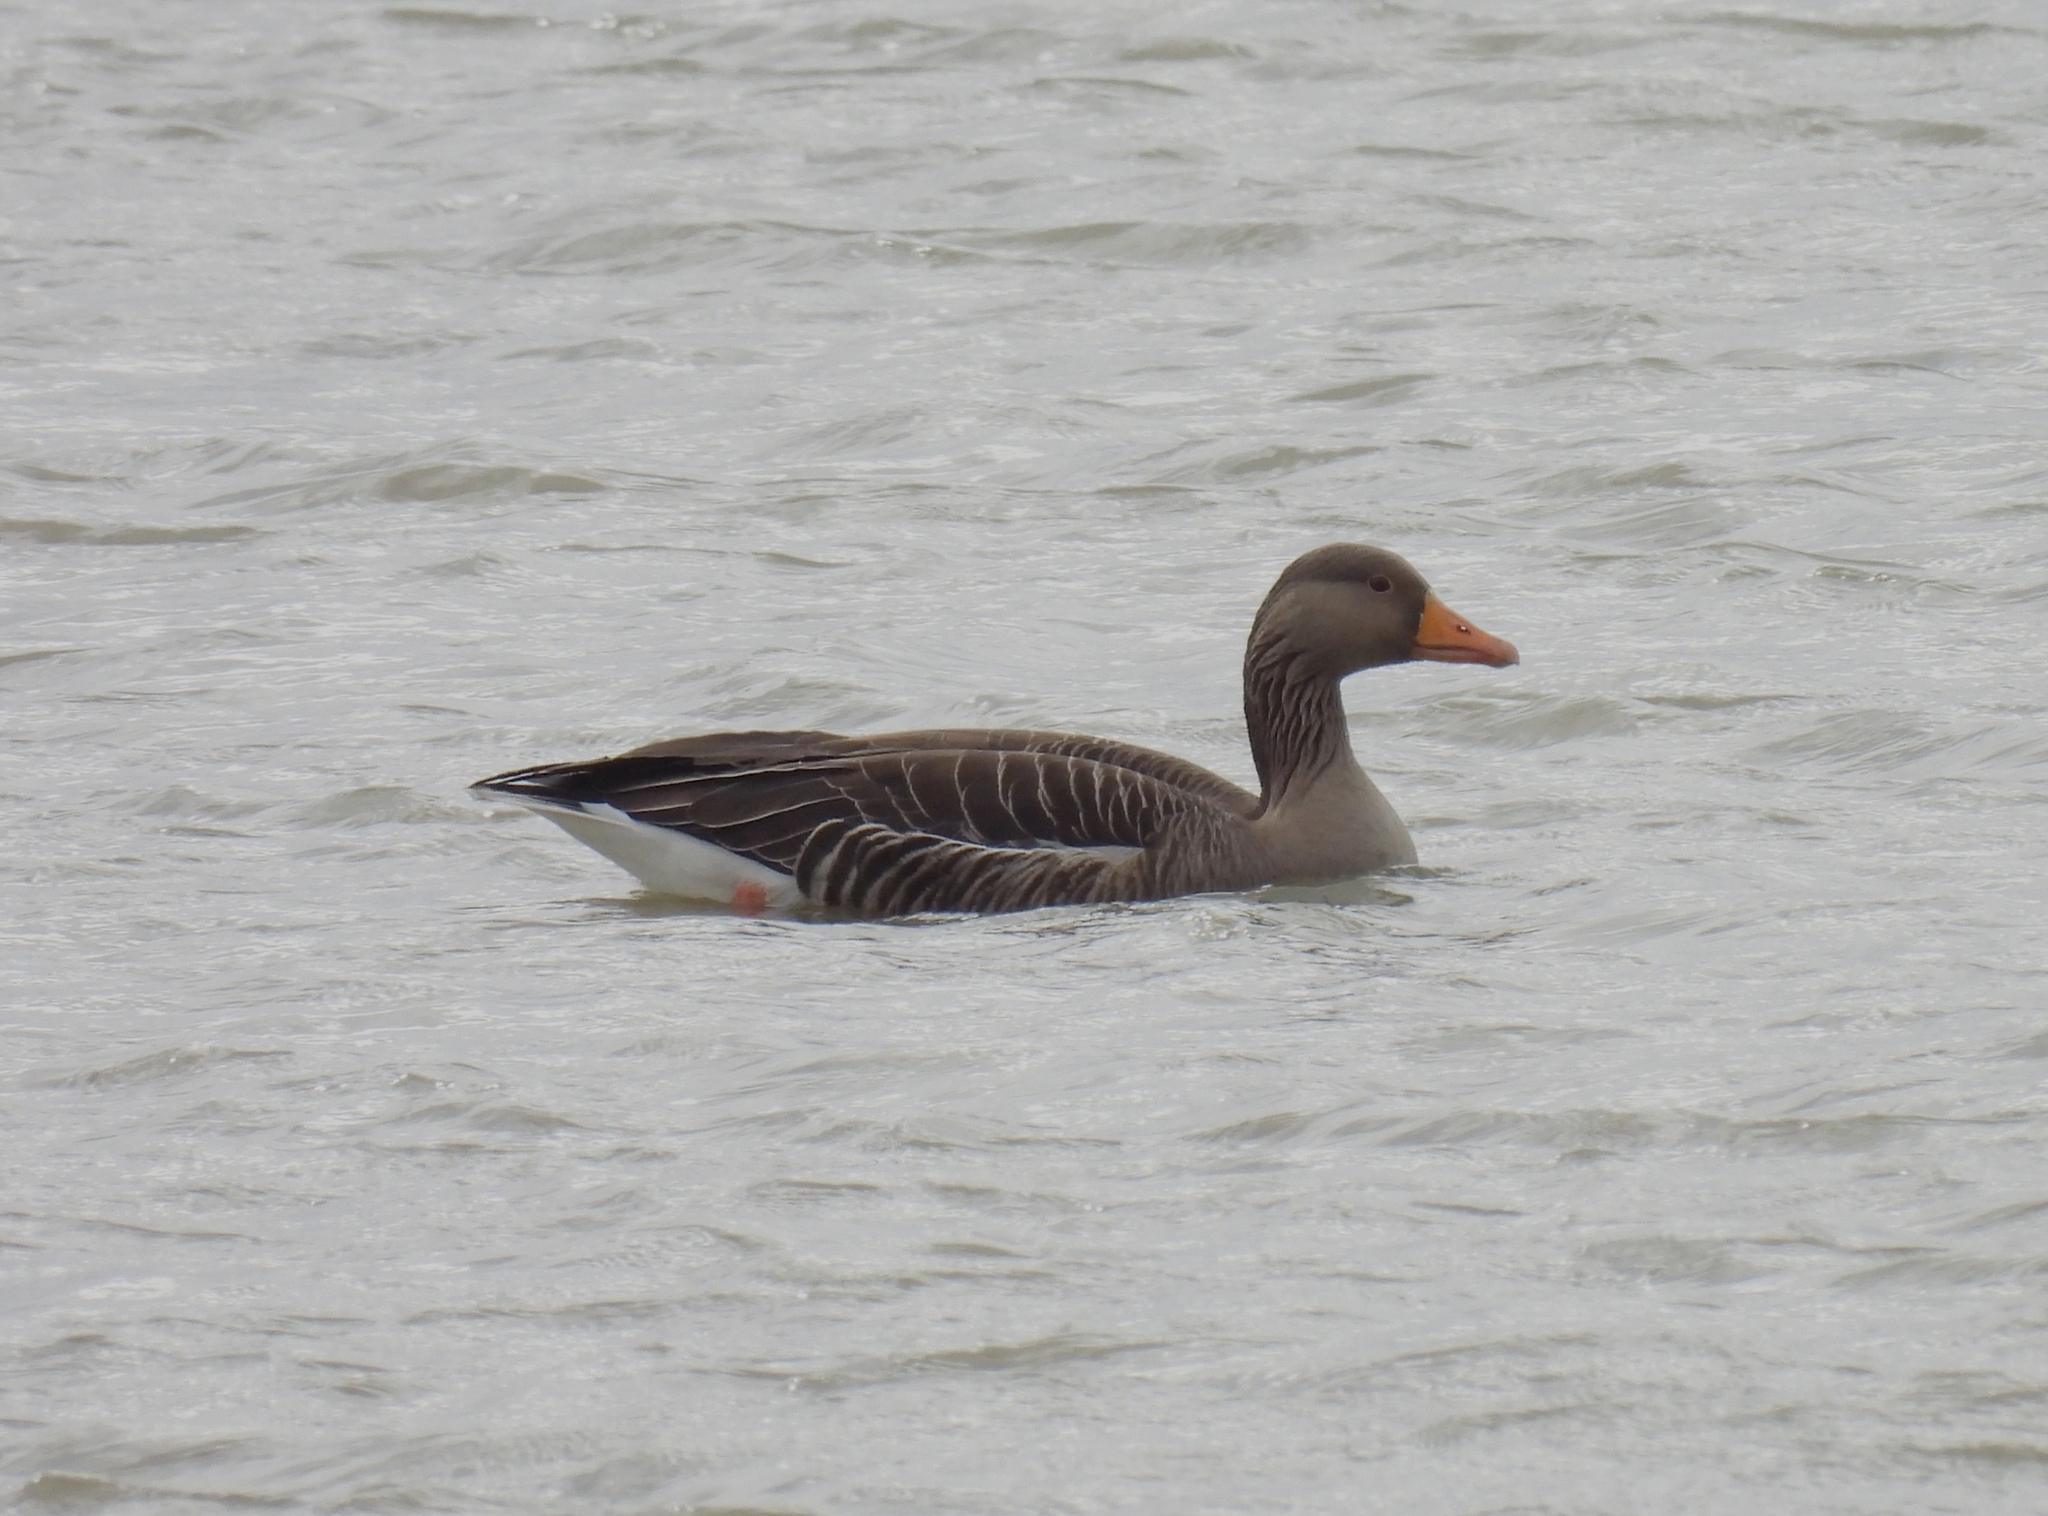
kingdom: Animalia
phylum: Chordata
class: Aves
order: Anseriformes
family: Anatidae
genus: Anser
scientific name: Anser anser
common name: Greylag goose
